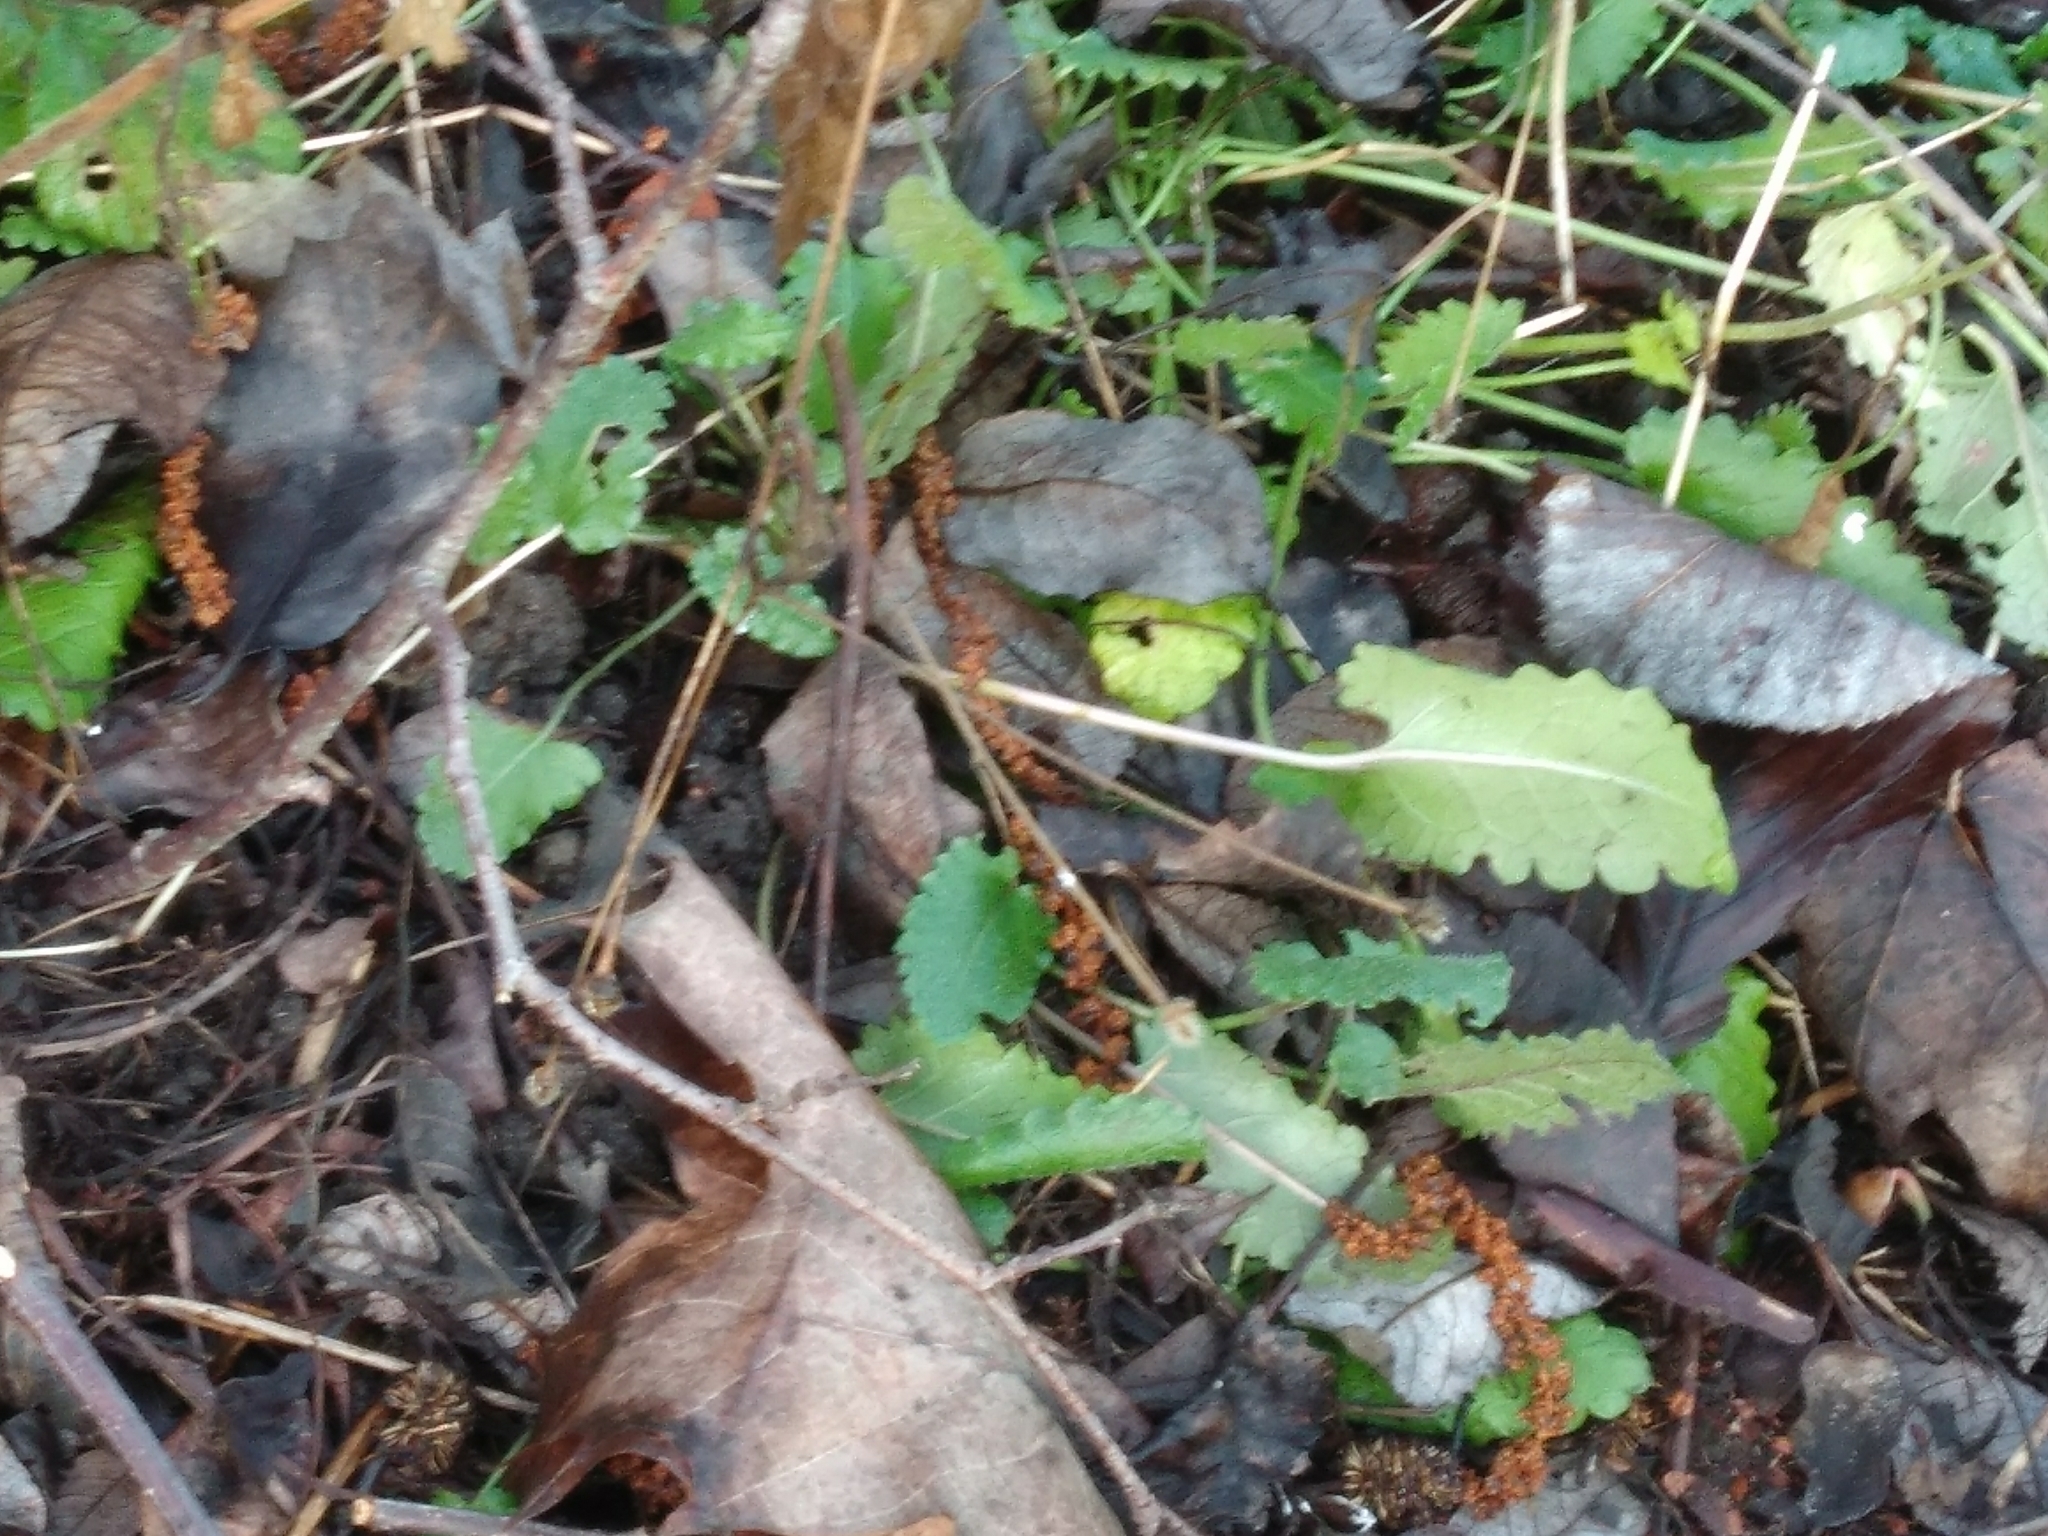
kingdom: Plantae
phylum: Tracheophyta
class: Magnoliopsida
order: Lamiales
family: Lamiaceae
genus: Betonica
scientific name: Betonica officinalis
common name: Bishop's-wort
